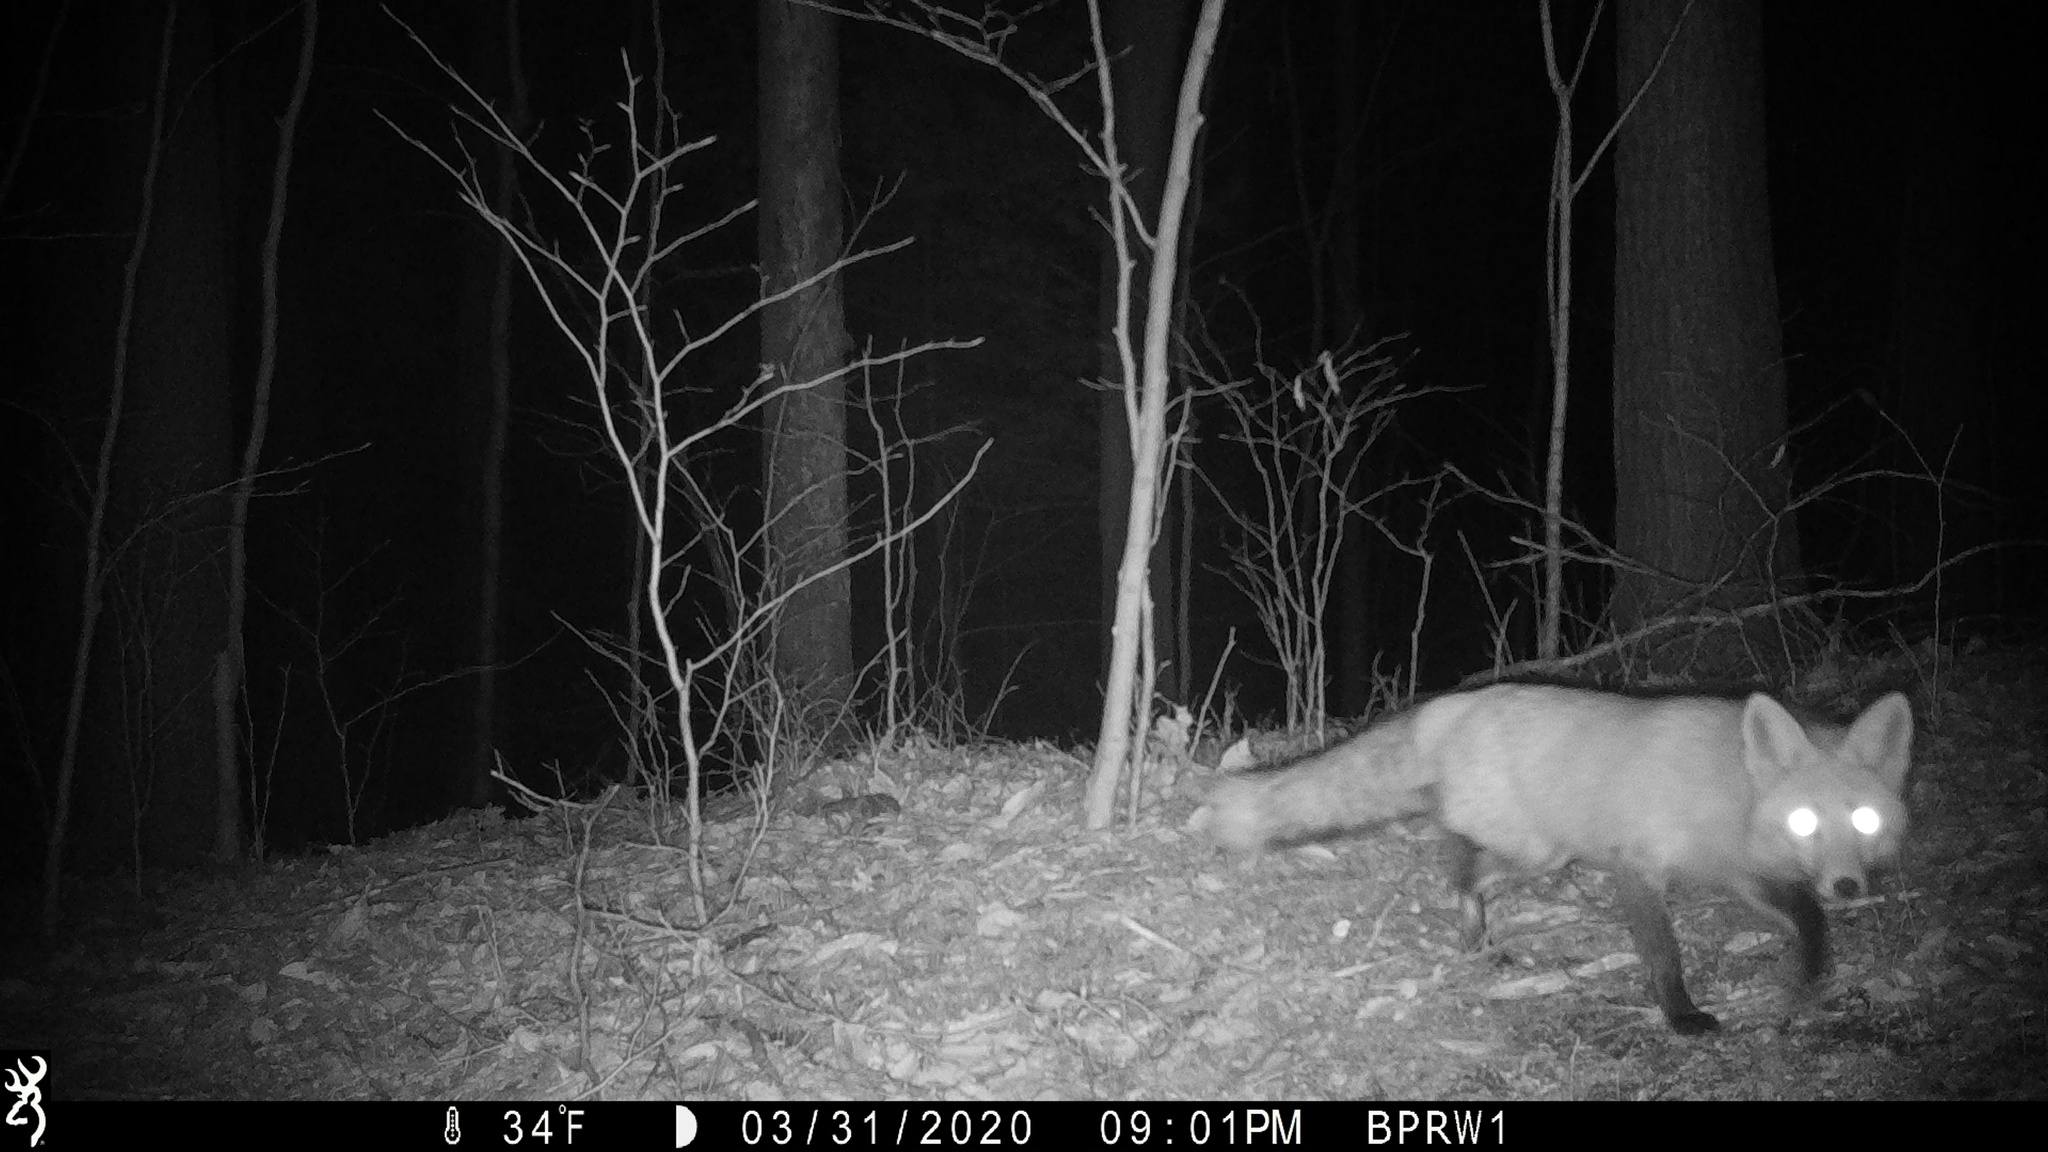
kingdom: Animalia
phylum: Chordata
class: Mammalia
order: Carnivora
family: Canidae
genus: Vulpes
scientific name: Vulpes vulpes
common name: Red fox
